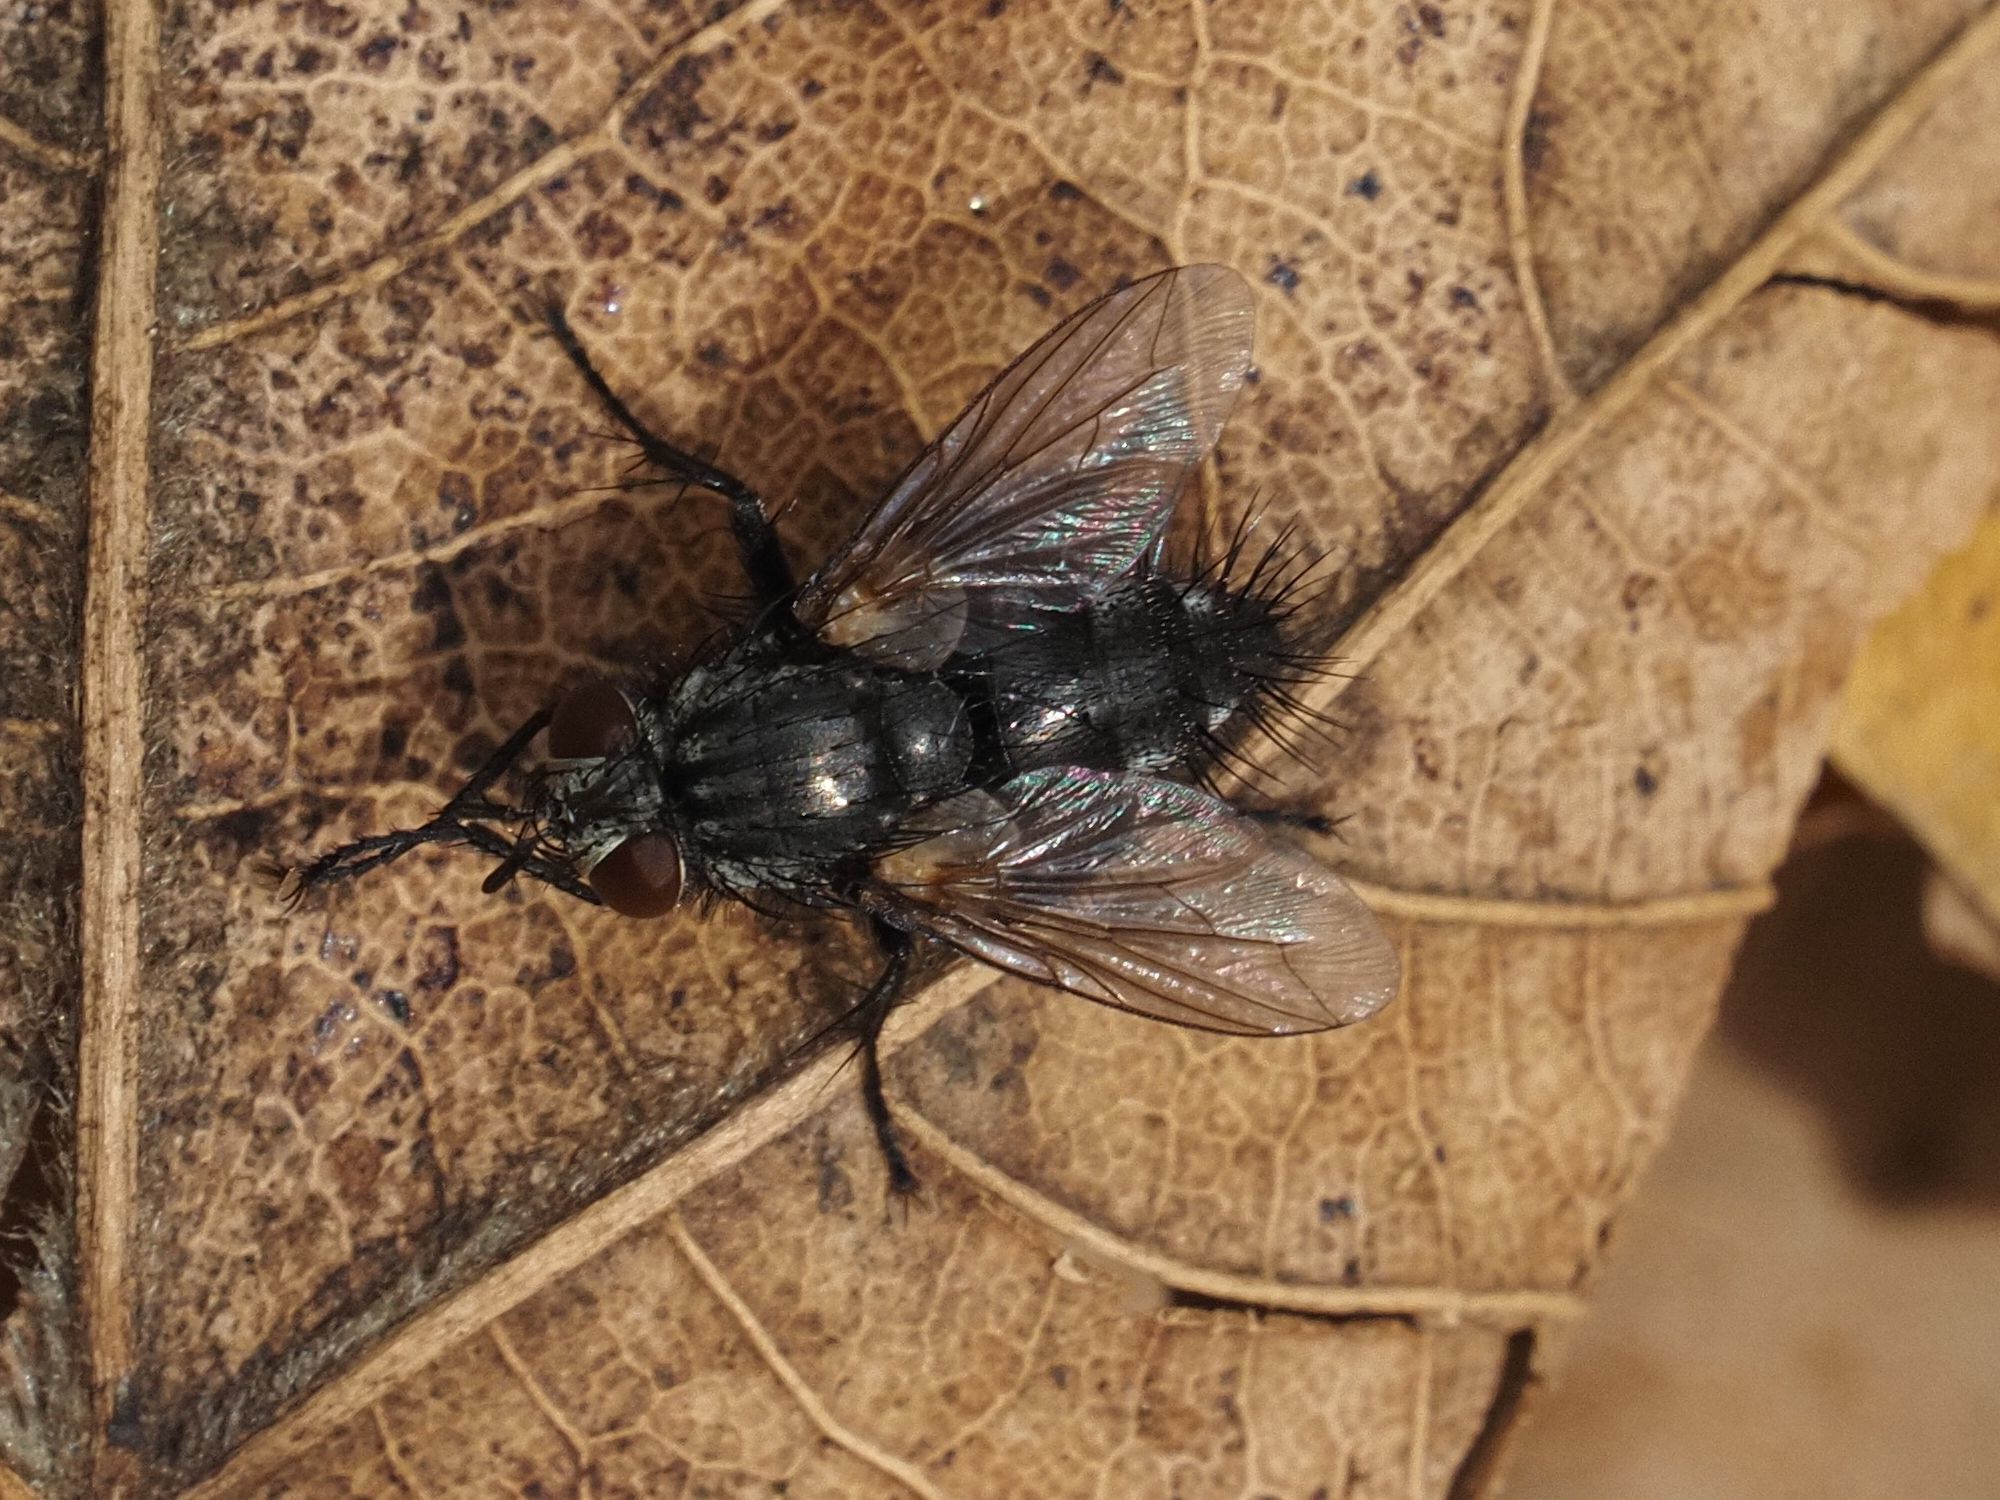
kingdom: Animalia
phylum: Arthropoda
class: Insecta
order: Diptera
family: Tachinidae
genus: Voria
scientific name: Voria ruralis
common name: Parasitic fly
